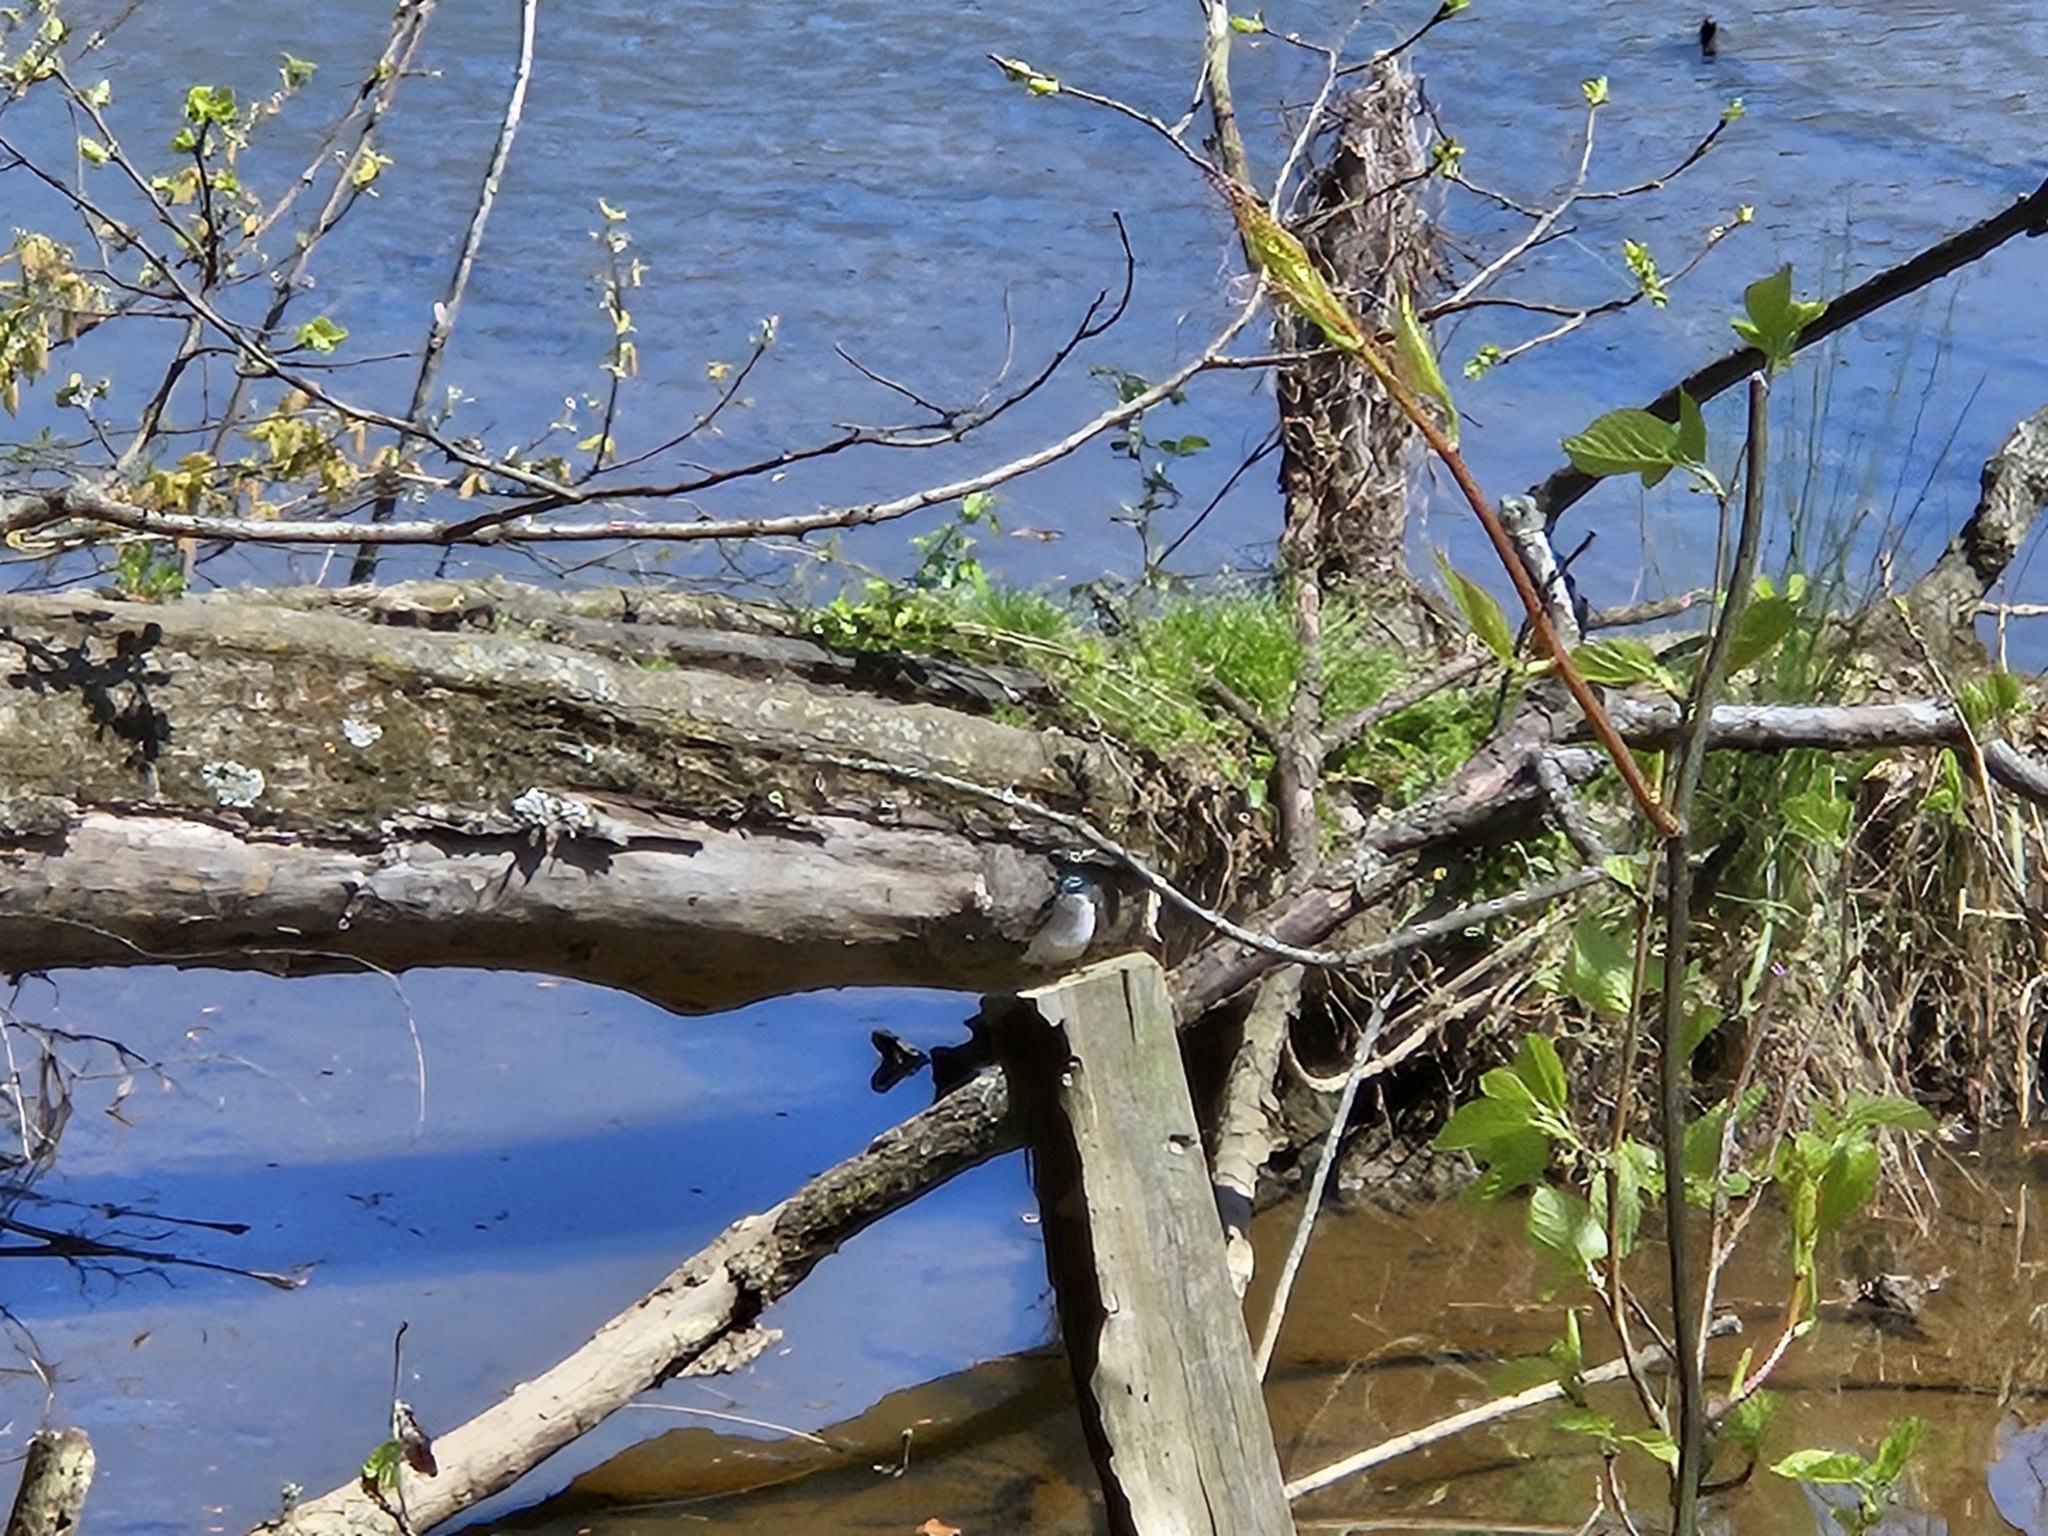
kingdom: Animalia
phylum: Chordata
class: Aves
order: Passeriformes
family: Hirundinidae
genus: Tachycineta
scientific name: Tachycineta bicolor
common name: Tree swallow
